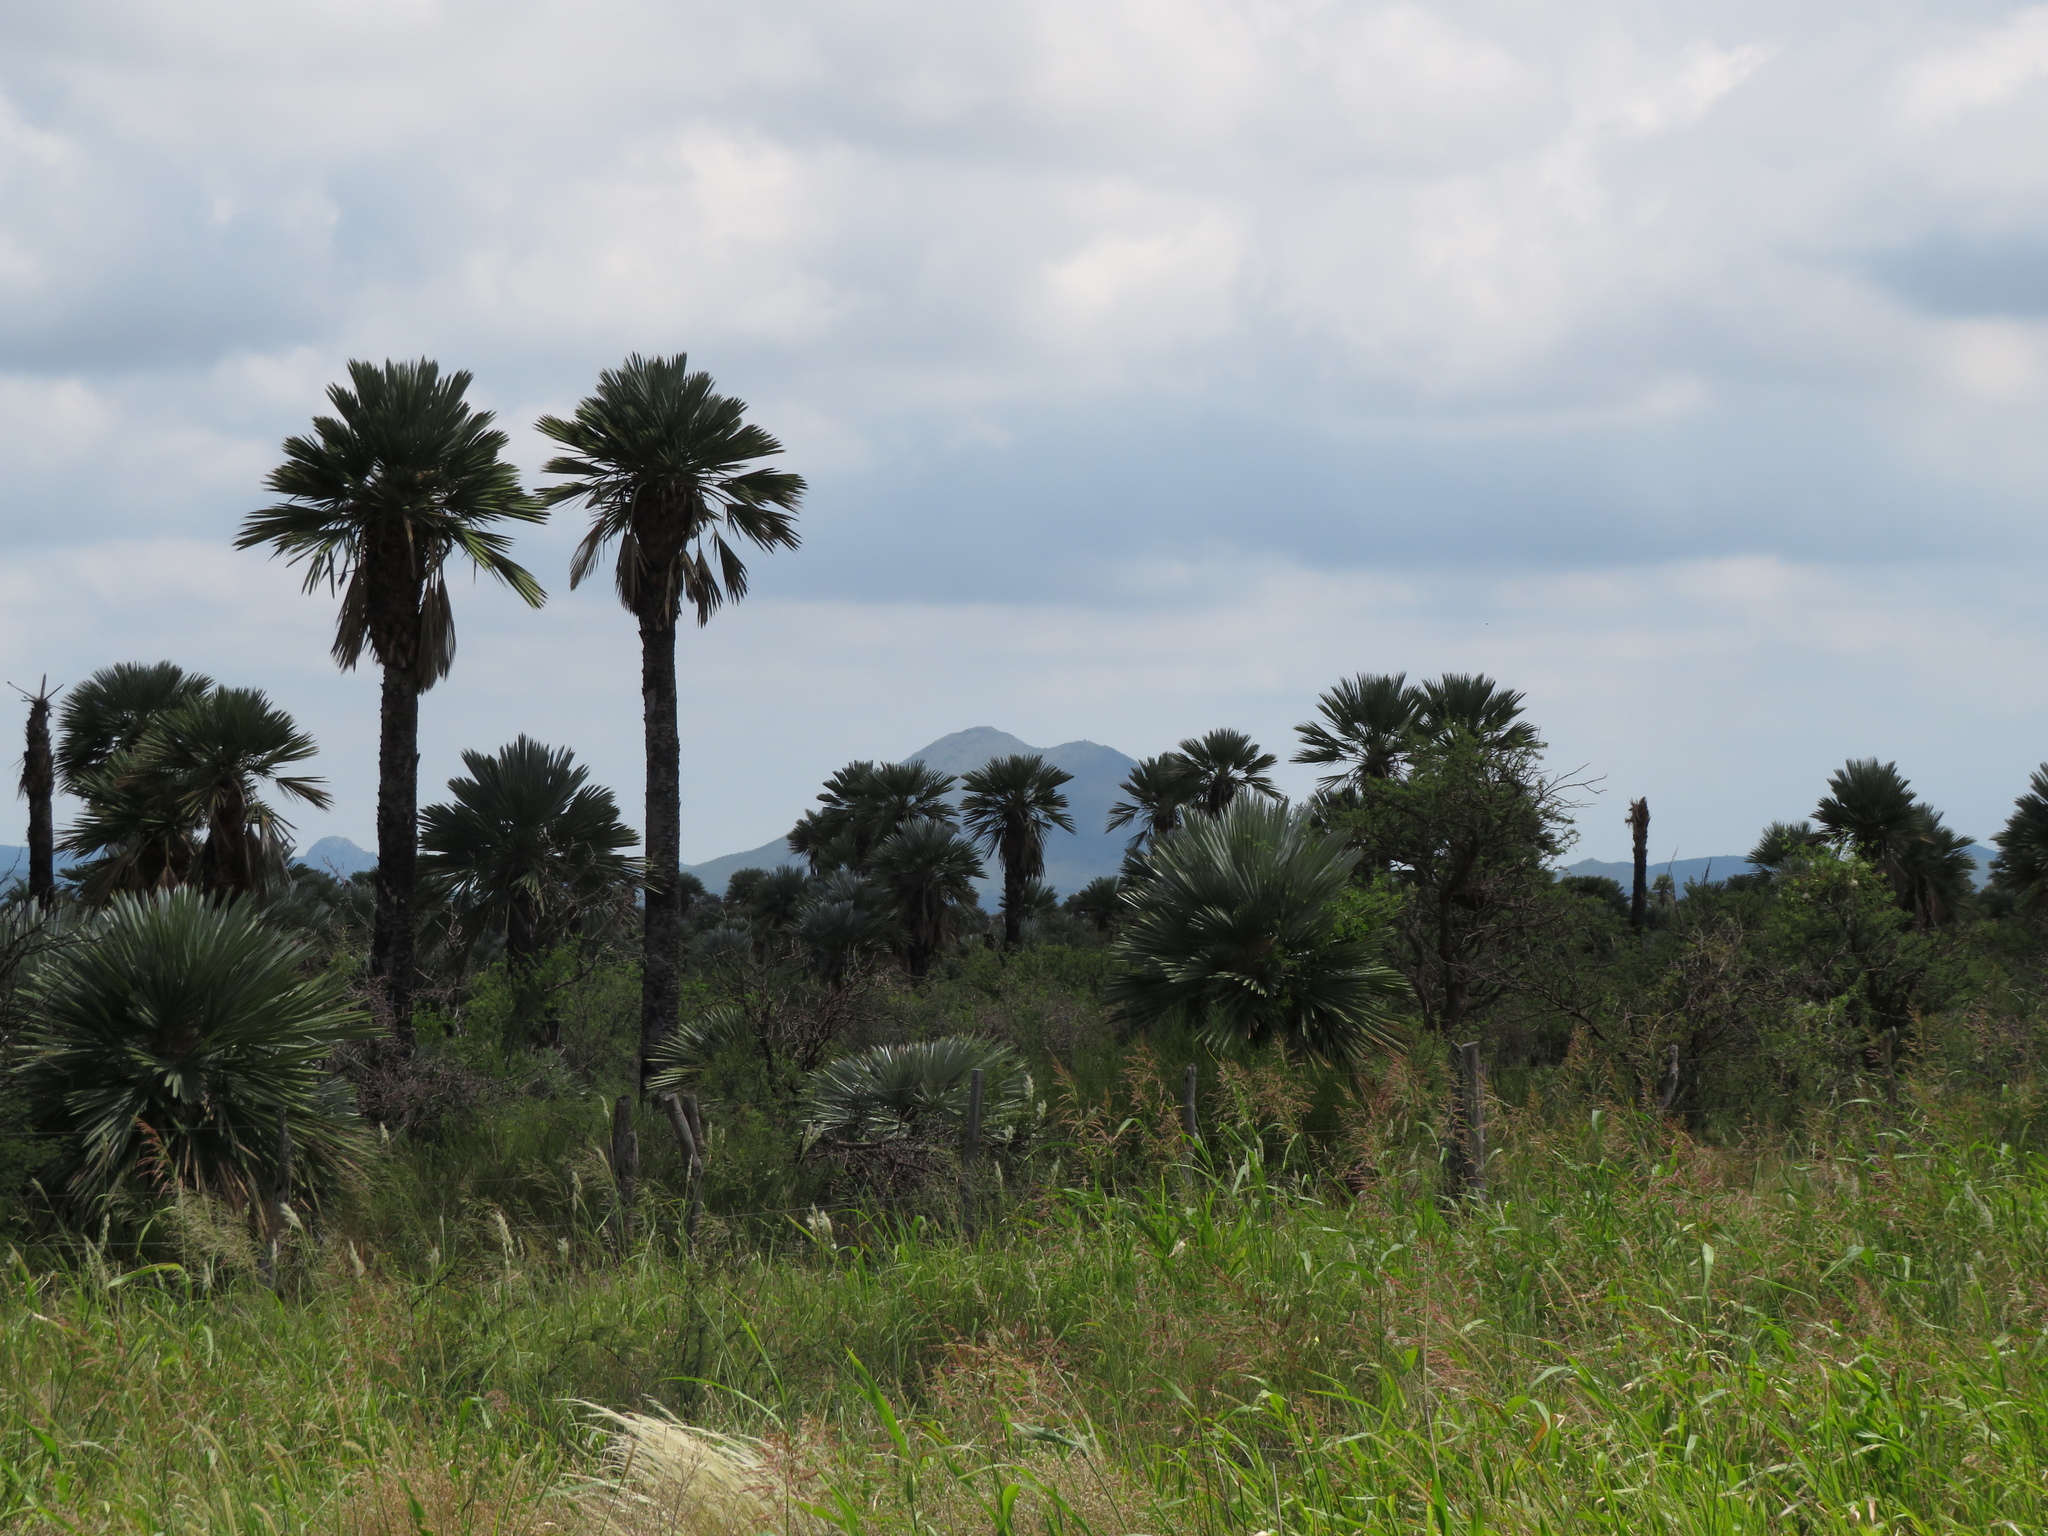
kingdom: Plantae
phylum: Tracheophyta
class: Liliopsida
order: Arecales
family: Arecaceae
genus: Trithrinax
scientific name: Trithrinax campestris
